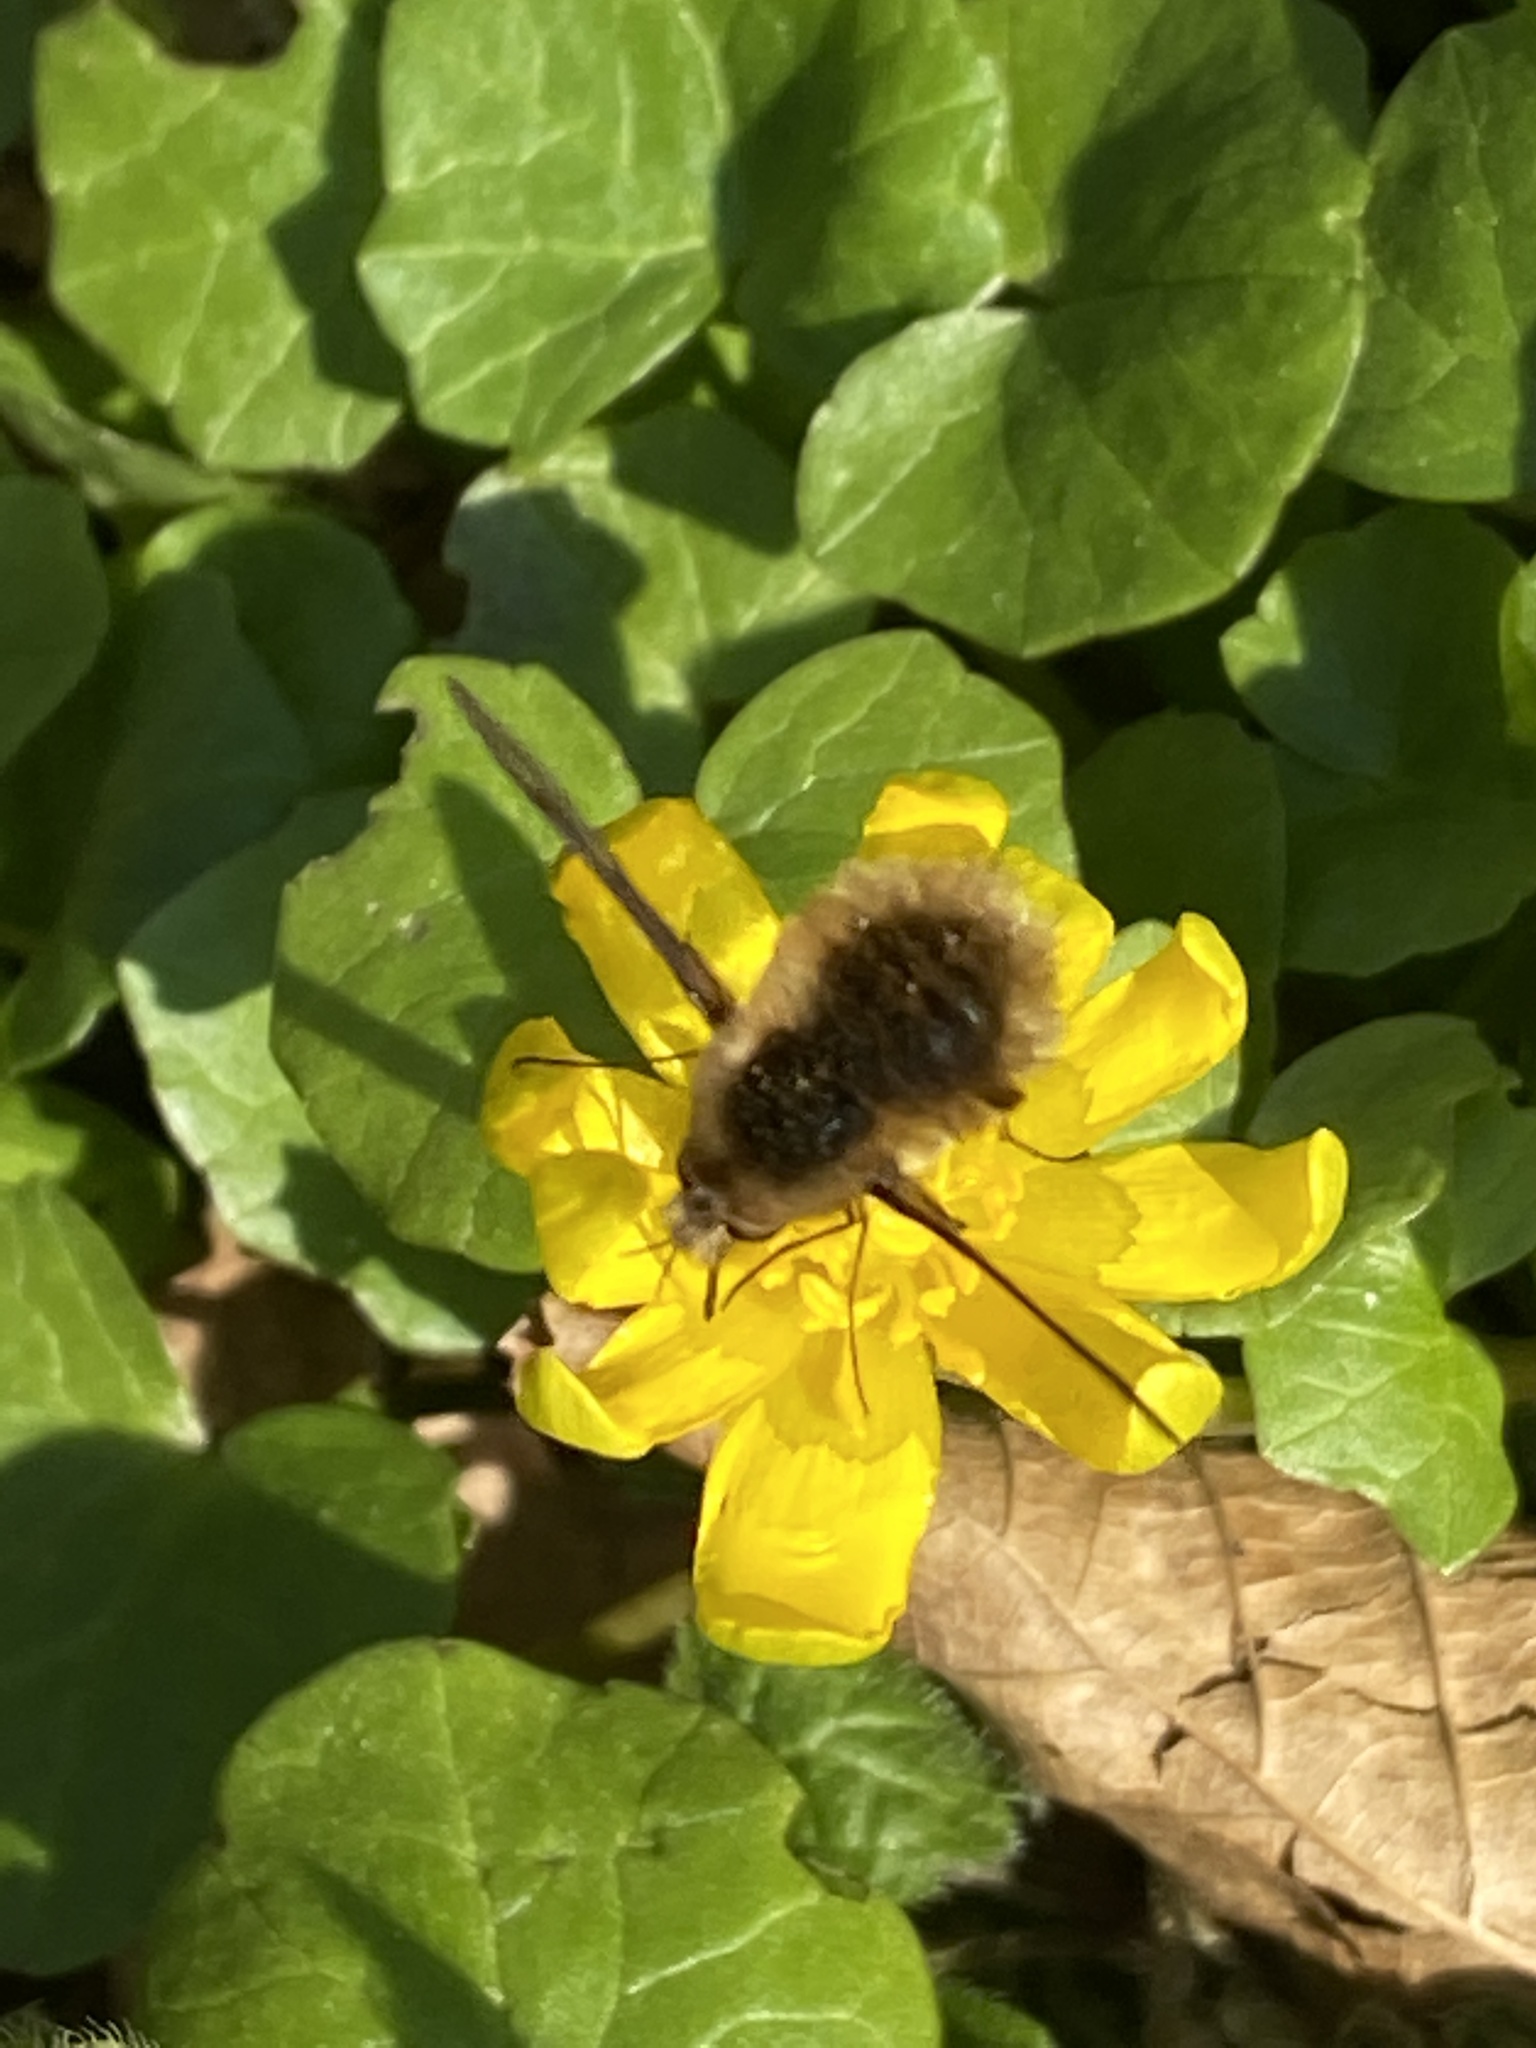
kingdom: Animalia
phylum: Arthropoda
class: Insecta
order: Diptera
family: Bombyliidae
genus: Bombylius
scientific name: Bombylius major
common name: Bee fly
